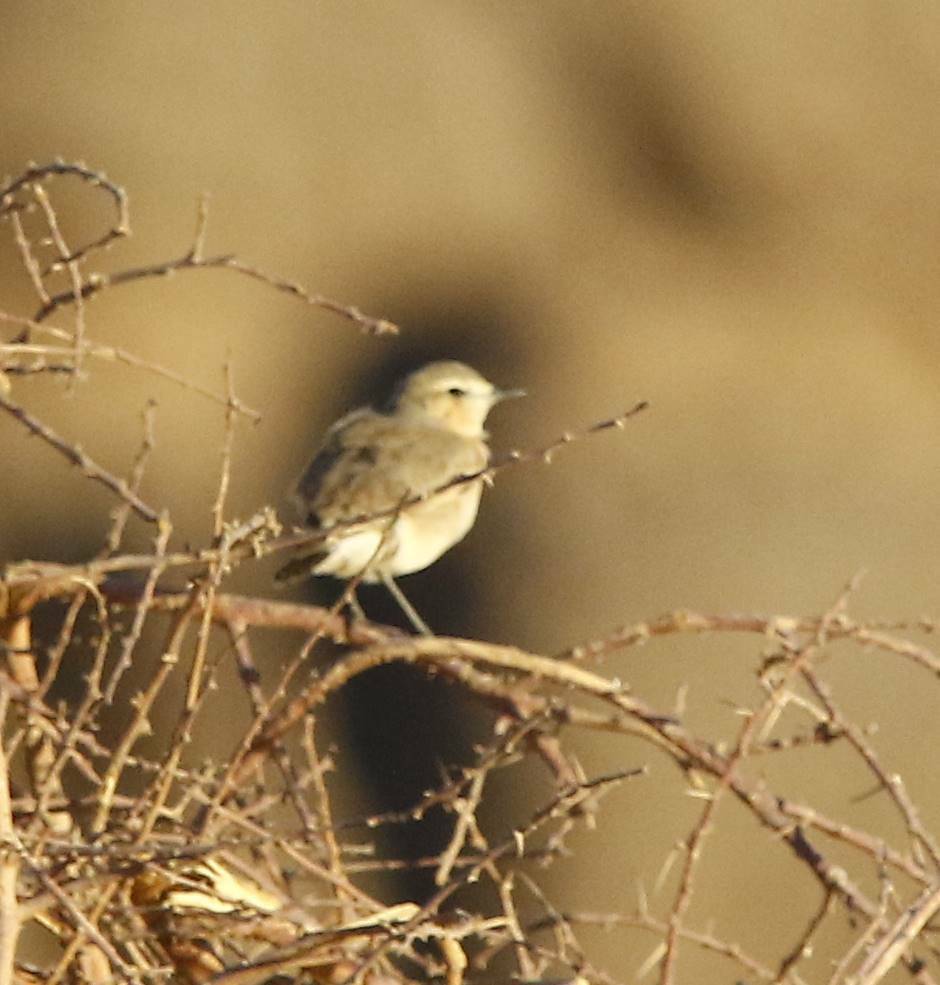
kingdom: Animalia
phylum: Chordata
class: Aves
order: Passeriformes
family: Muscicapidae
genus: Oenanthe
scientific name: Oenanthe isabellina
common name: Isabelline wheatear
